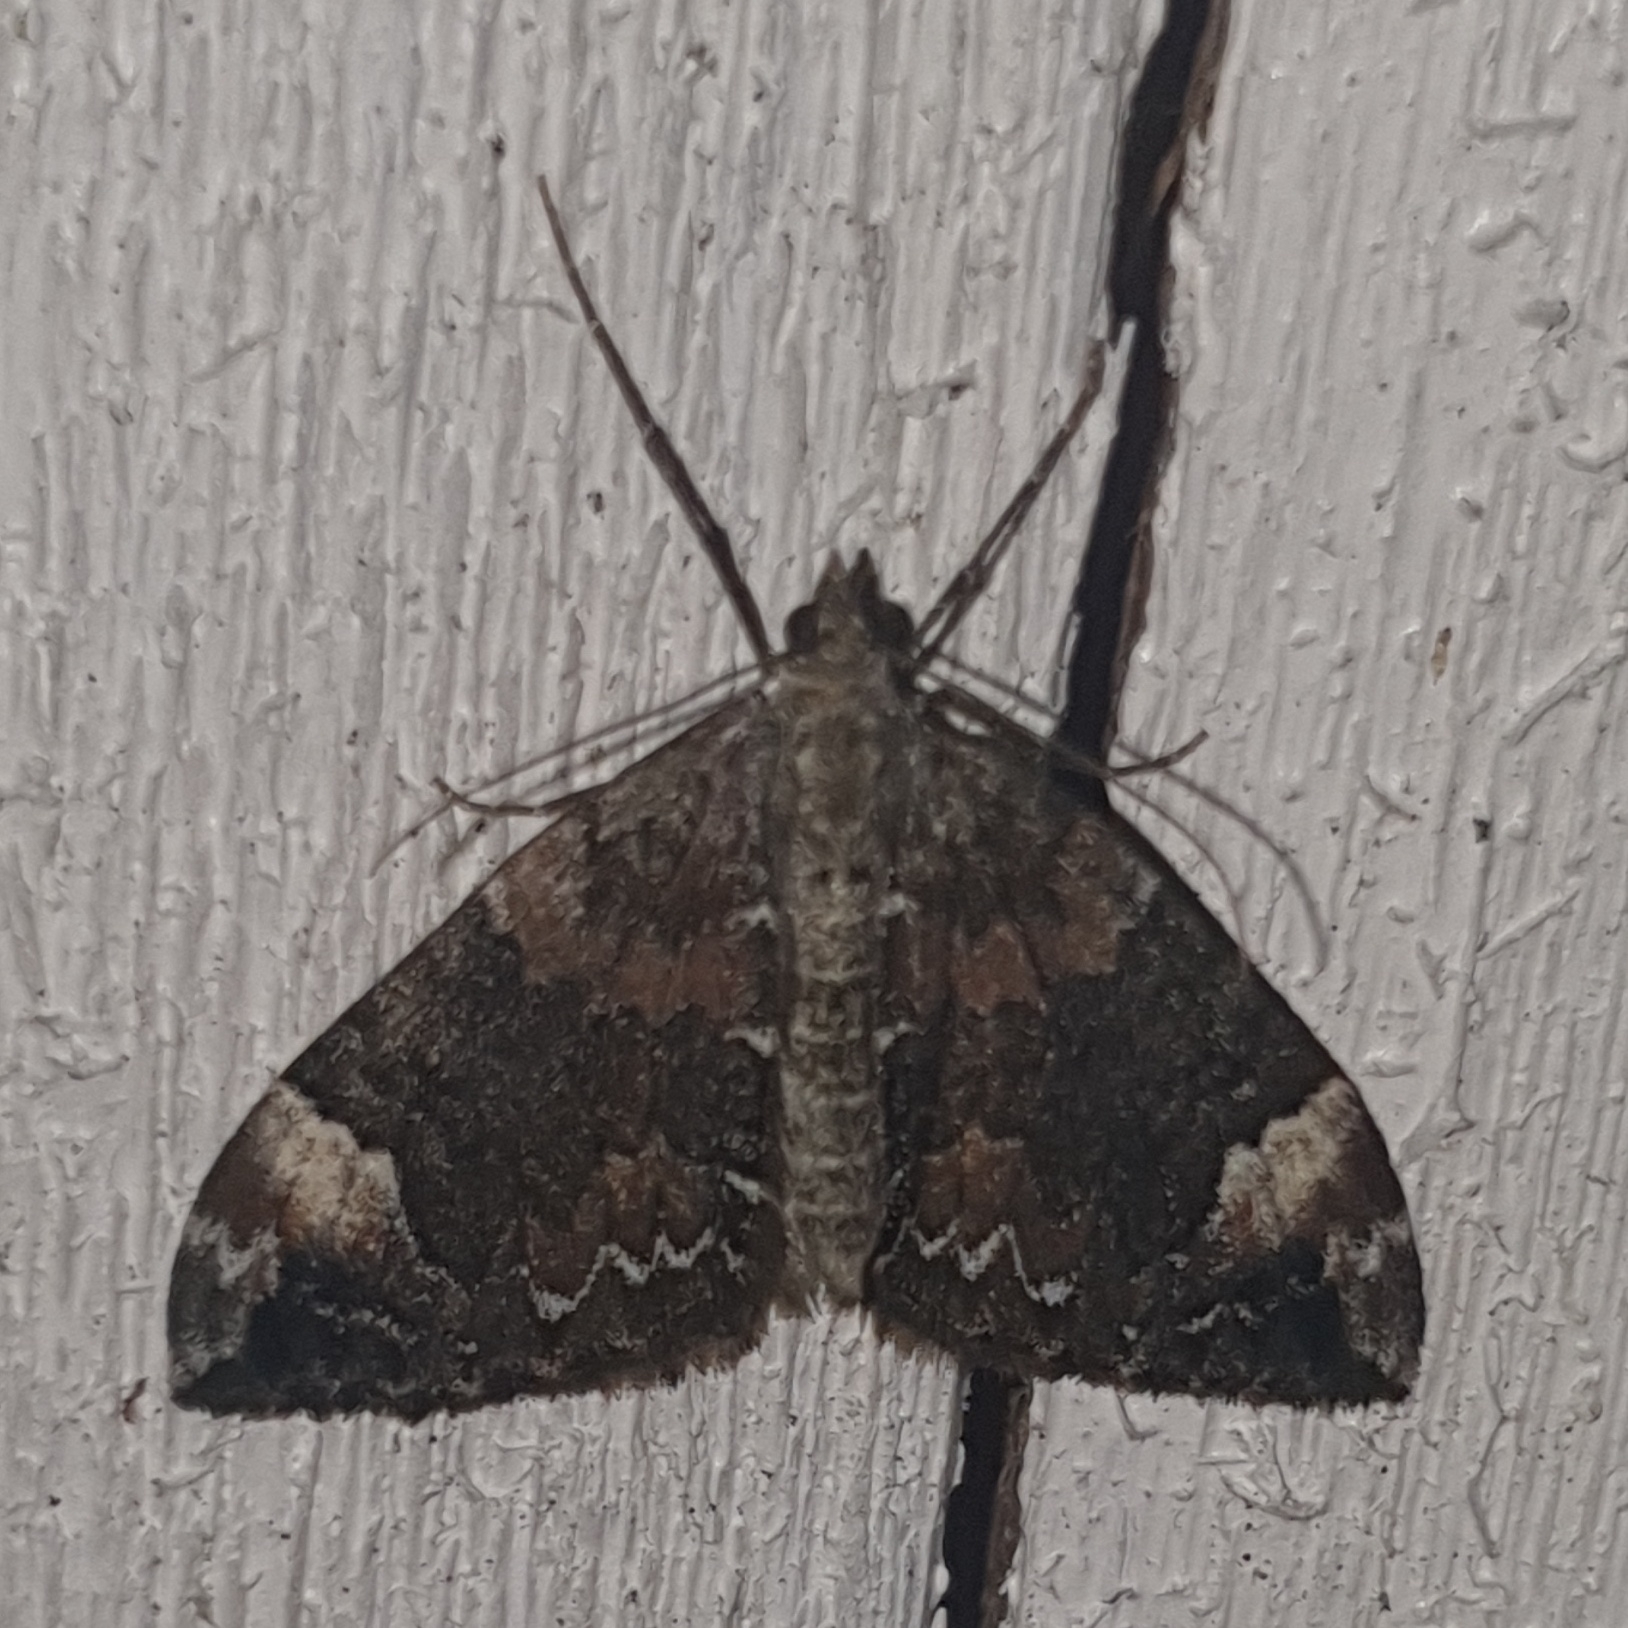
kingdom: Animalia
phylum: Arthropoda
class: Insecta
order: Lepidoptera
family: Geometridae
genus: Dysstroma
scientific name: Dysstroma citrata
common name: Dark marbled carpet
